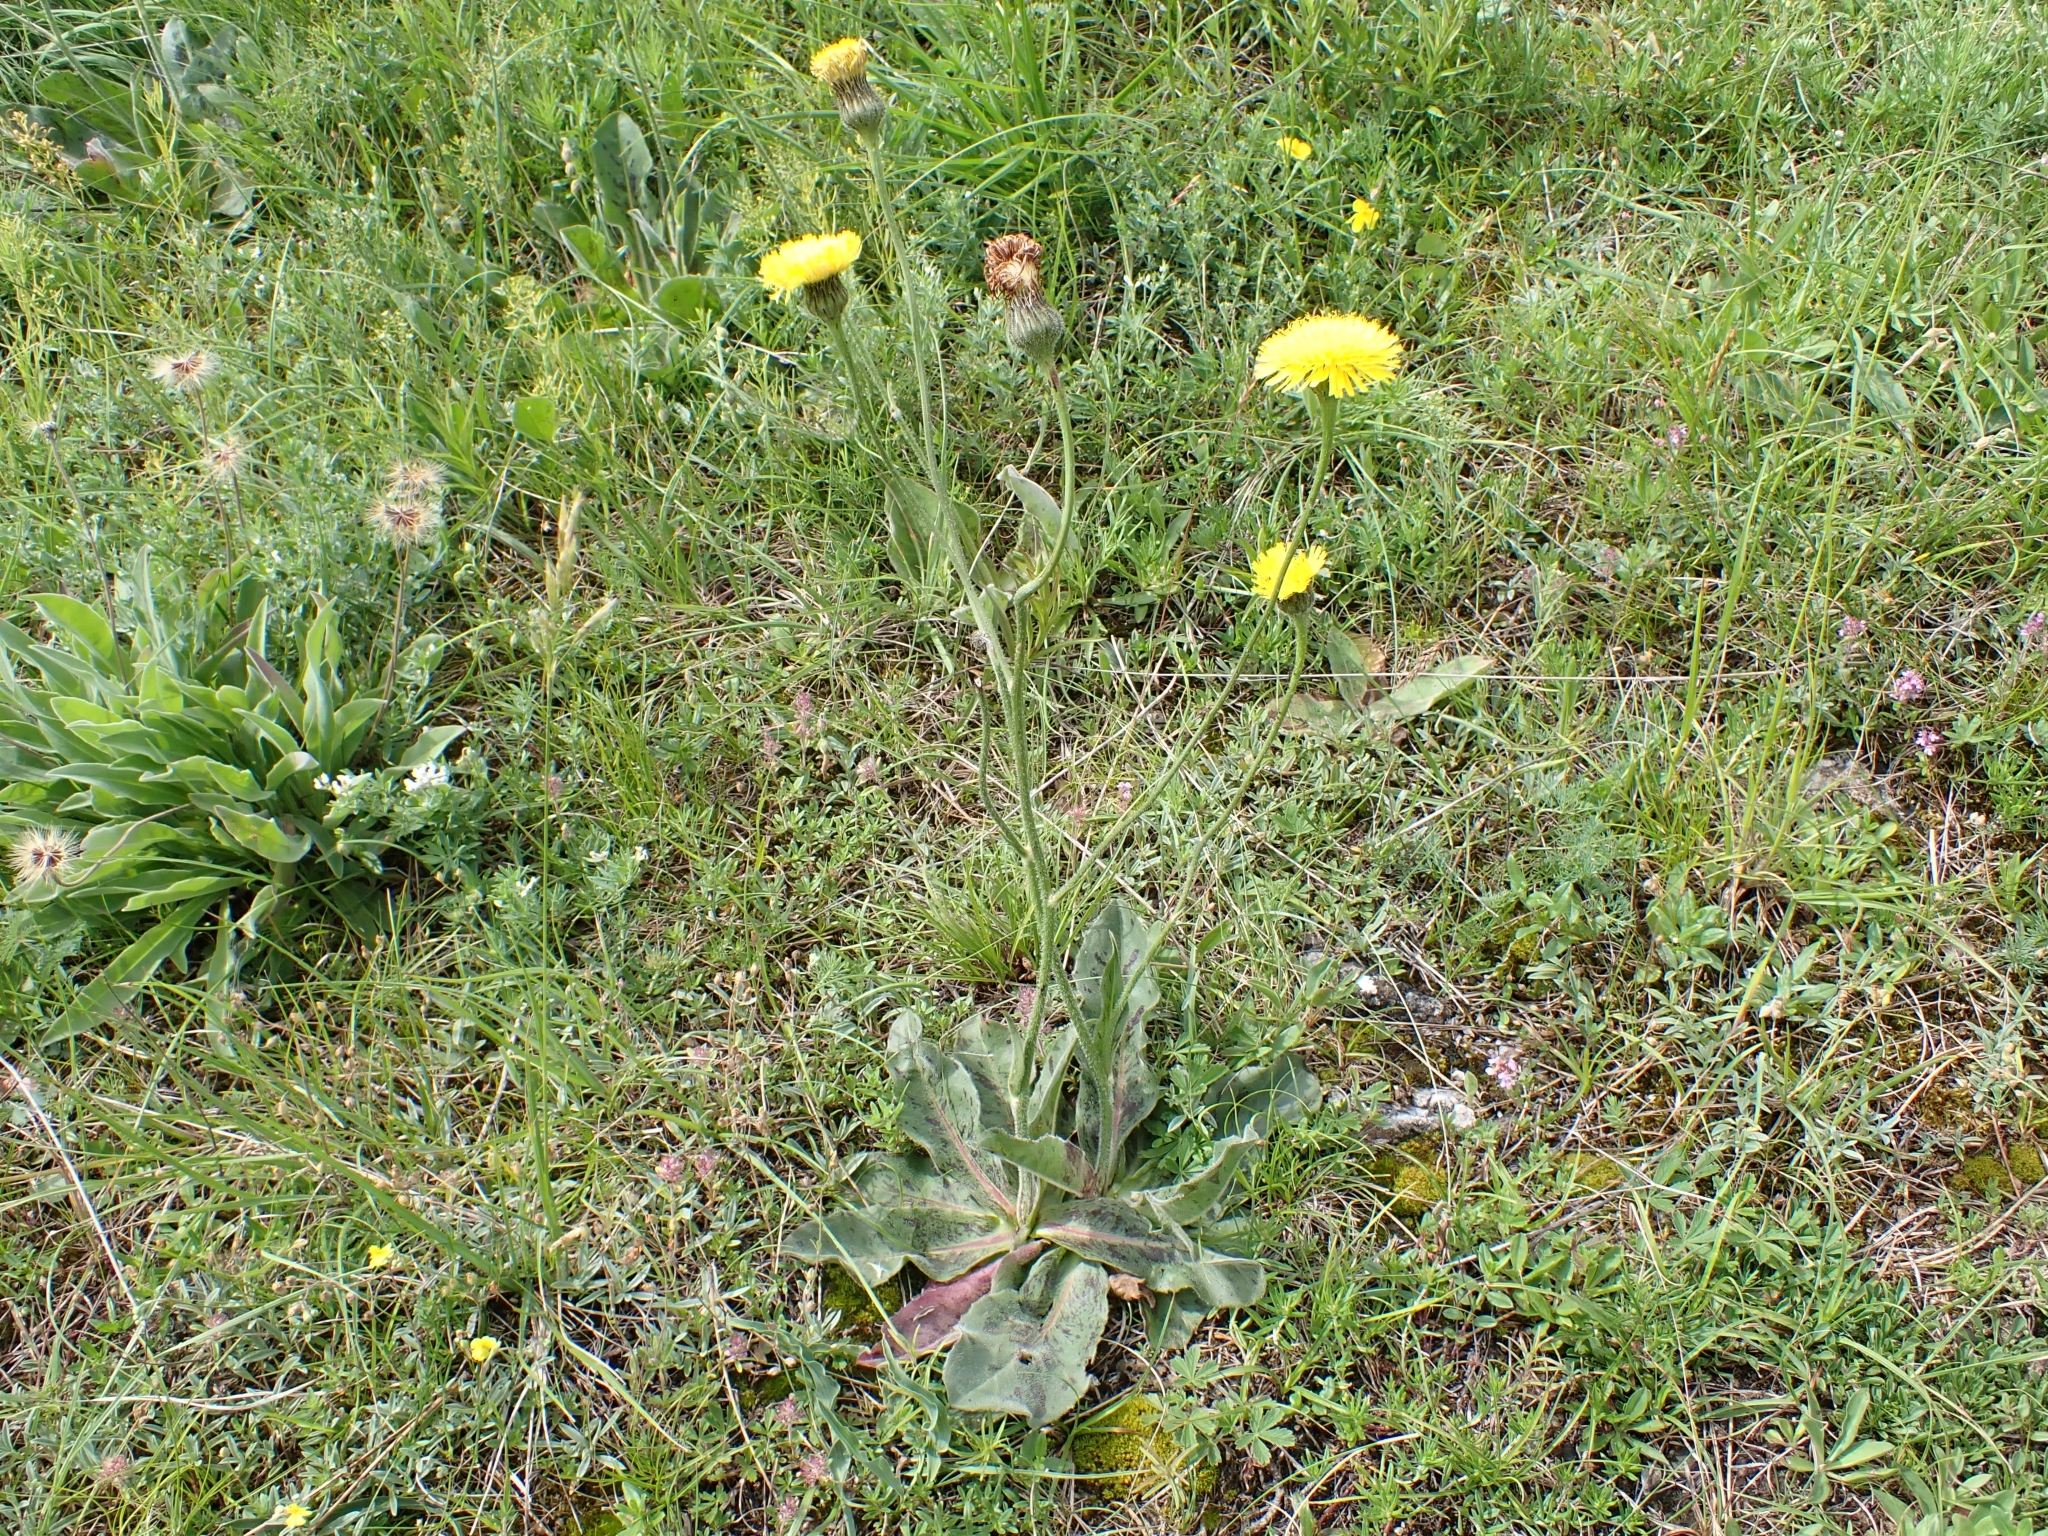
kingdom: Plantae
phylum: Tracheophyta
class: Magnoliopsida
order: Asterales
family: Asteraceae
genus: Trommsdorffia
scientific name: Trommsdorffia maculata
